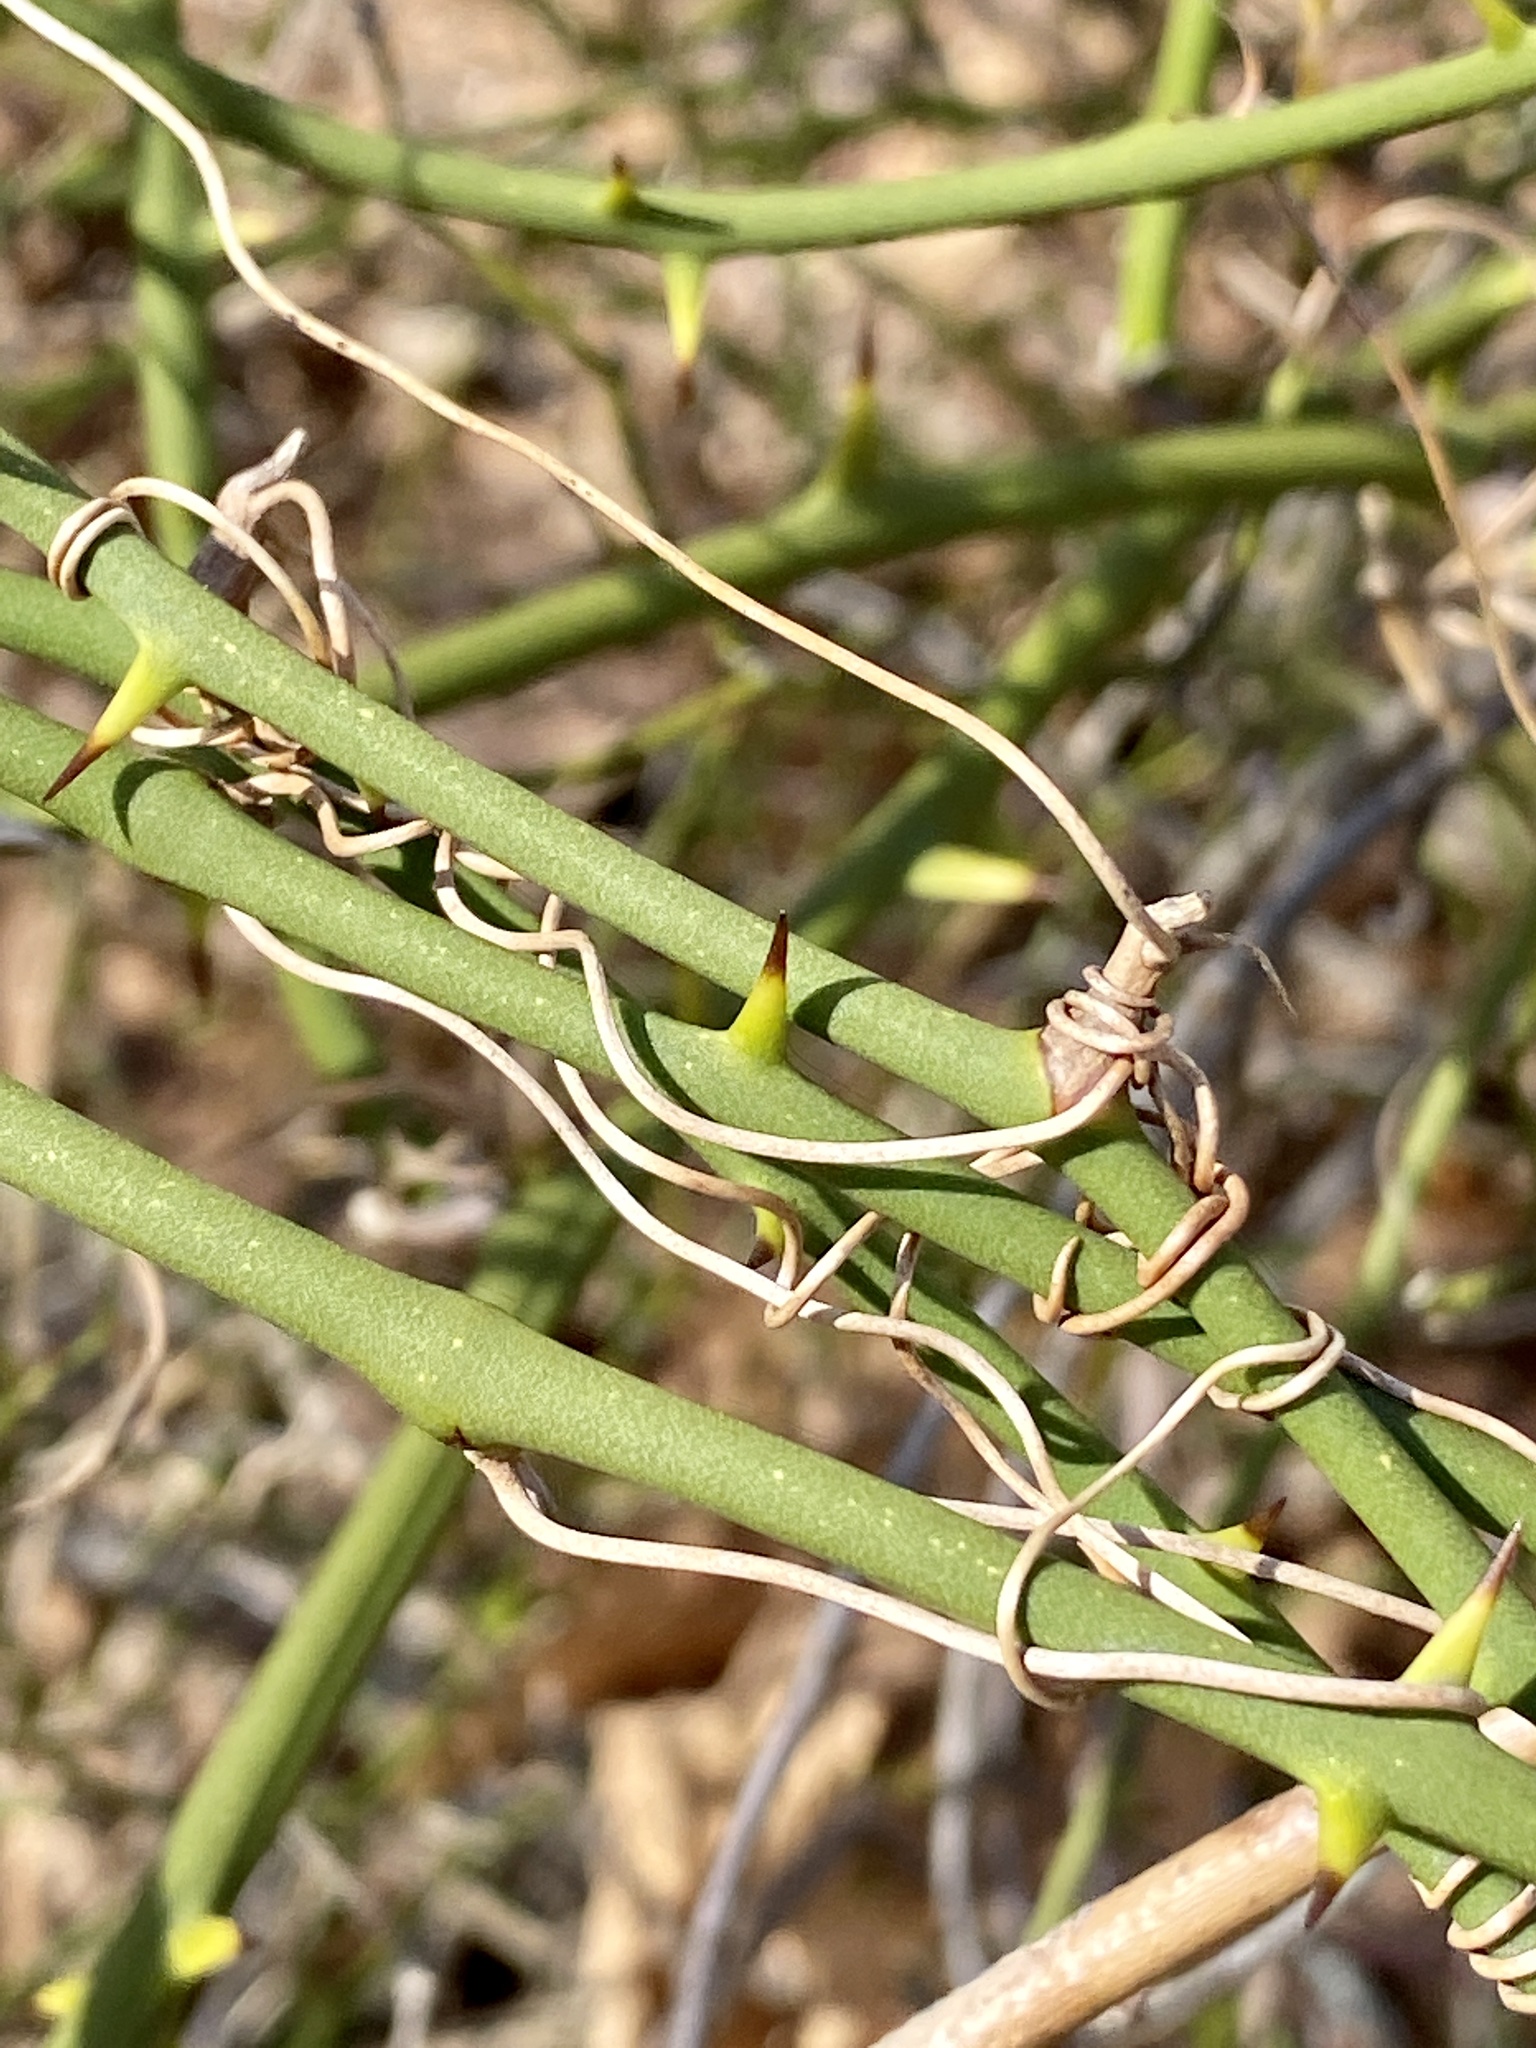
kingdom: Plantae
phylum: Tracheophyta
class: Liliopsida
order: Liliales
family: Smilacaceae
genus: Smilax
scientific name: Smilax rotundifolia
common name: Bullbriar
